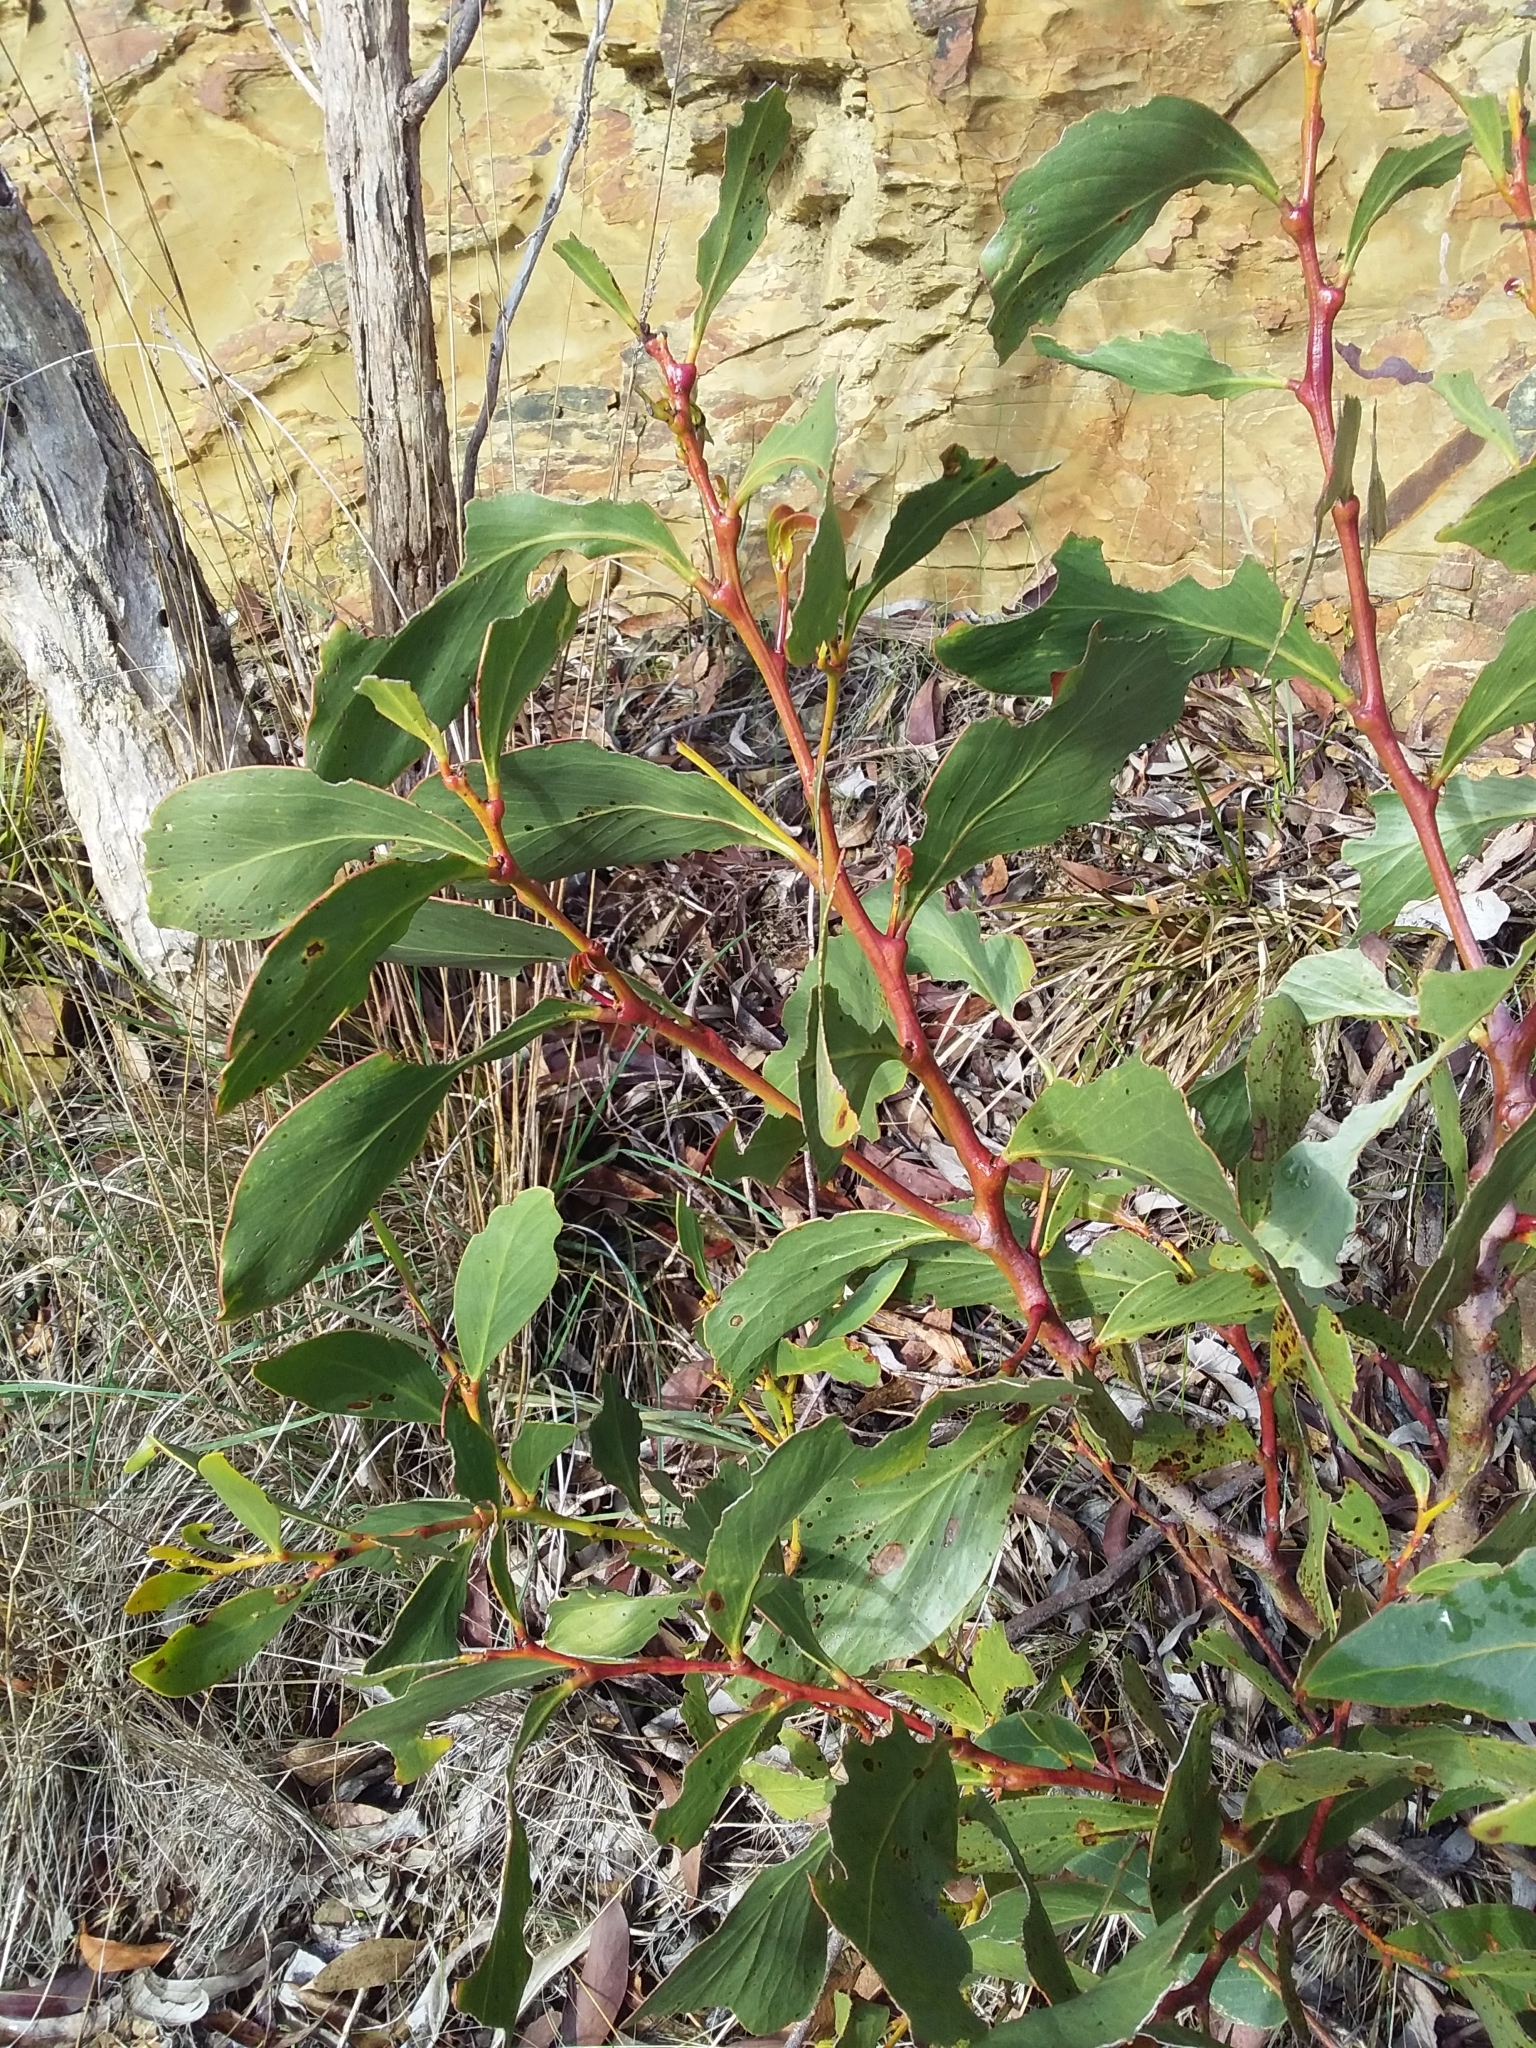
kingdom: Plantae
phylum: Tracheophyta
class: Magnoliopsida
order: Fabales
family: Fabaceae
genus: Acacia
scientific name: Acacia pycnantha
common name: Golden wattle
